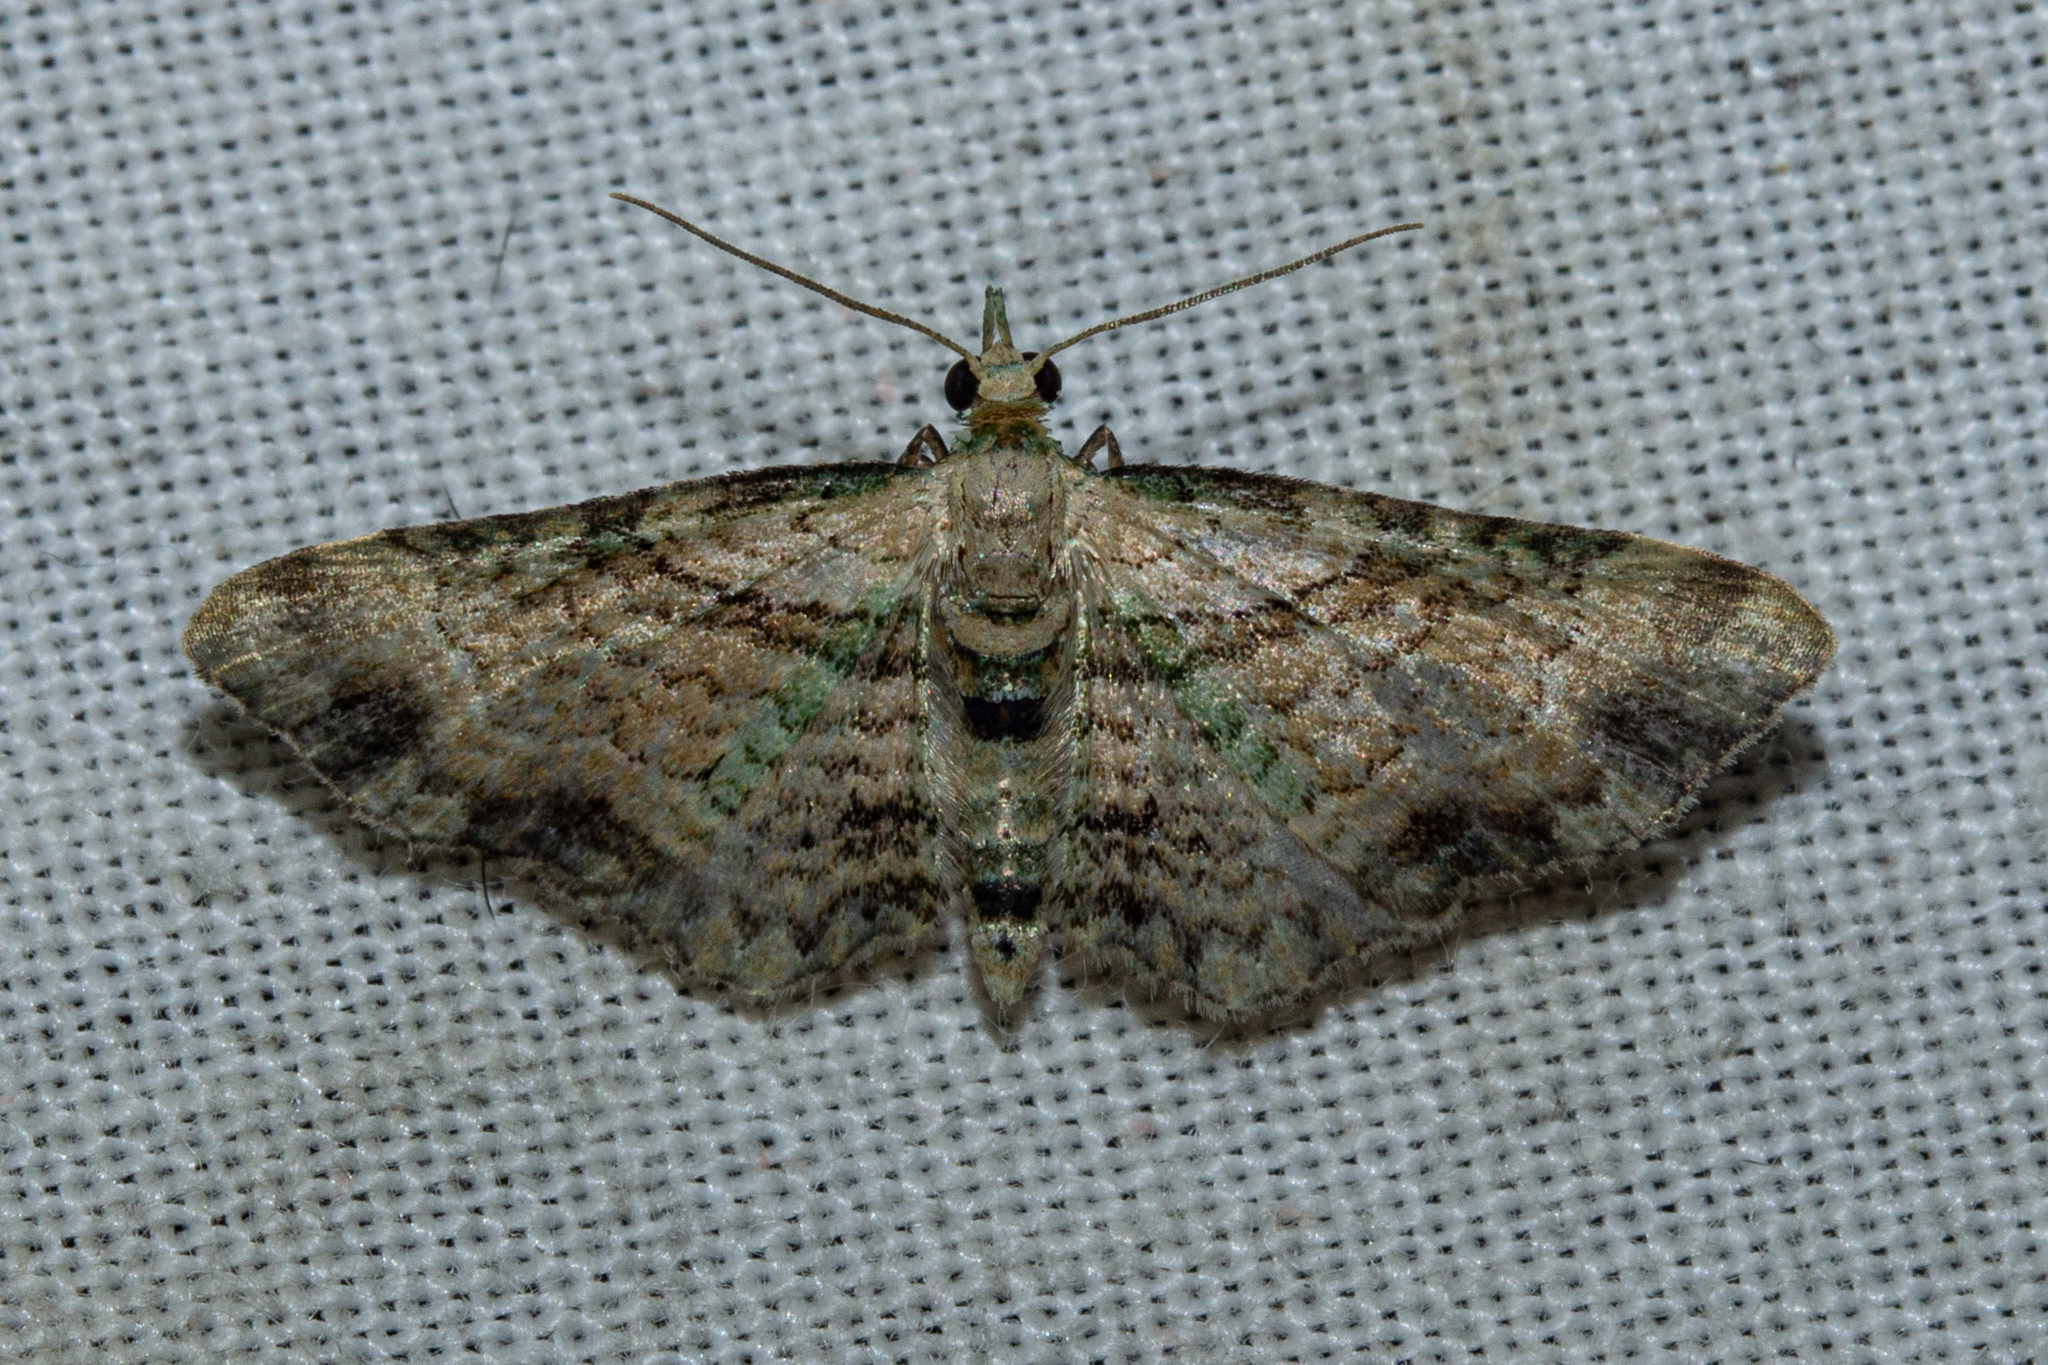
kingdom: Animalia
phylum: Arthropoda
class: Insecta
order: Lepidoptera
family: Geometridae
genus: Chloroclystis
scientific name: Chloroclystis
